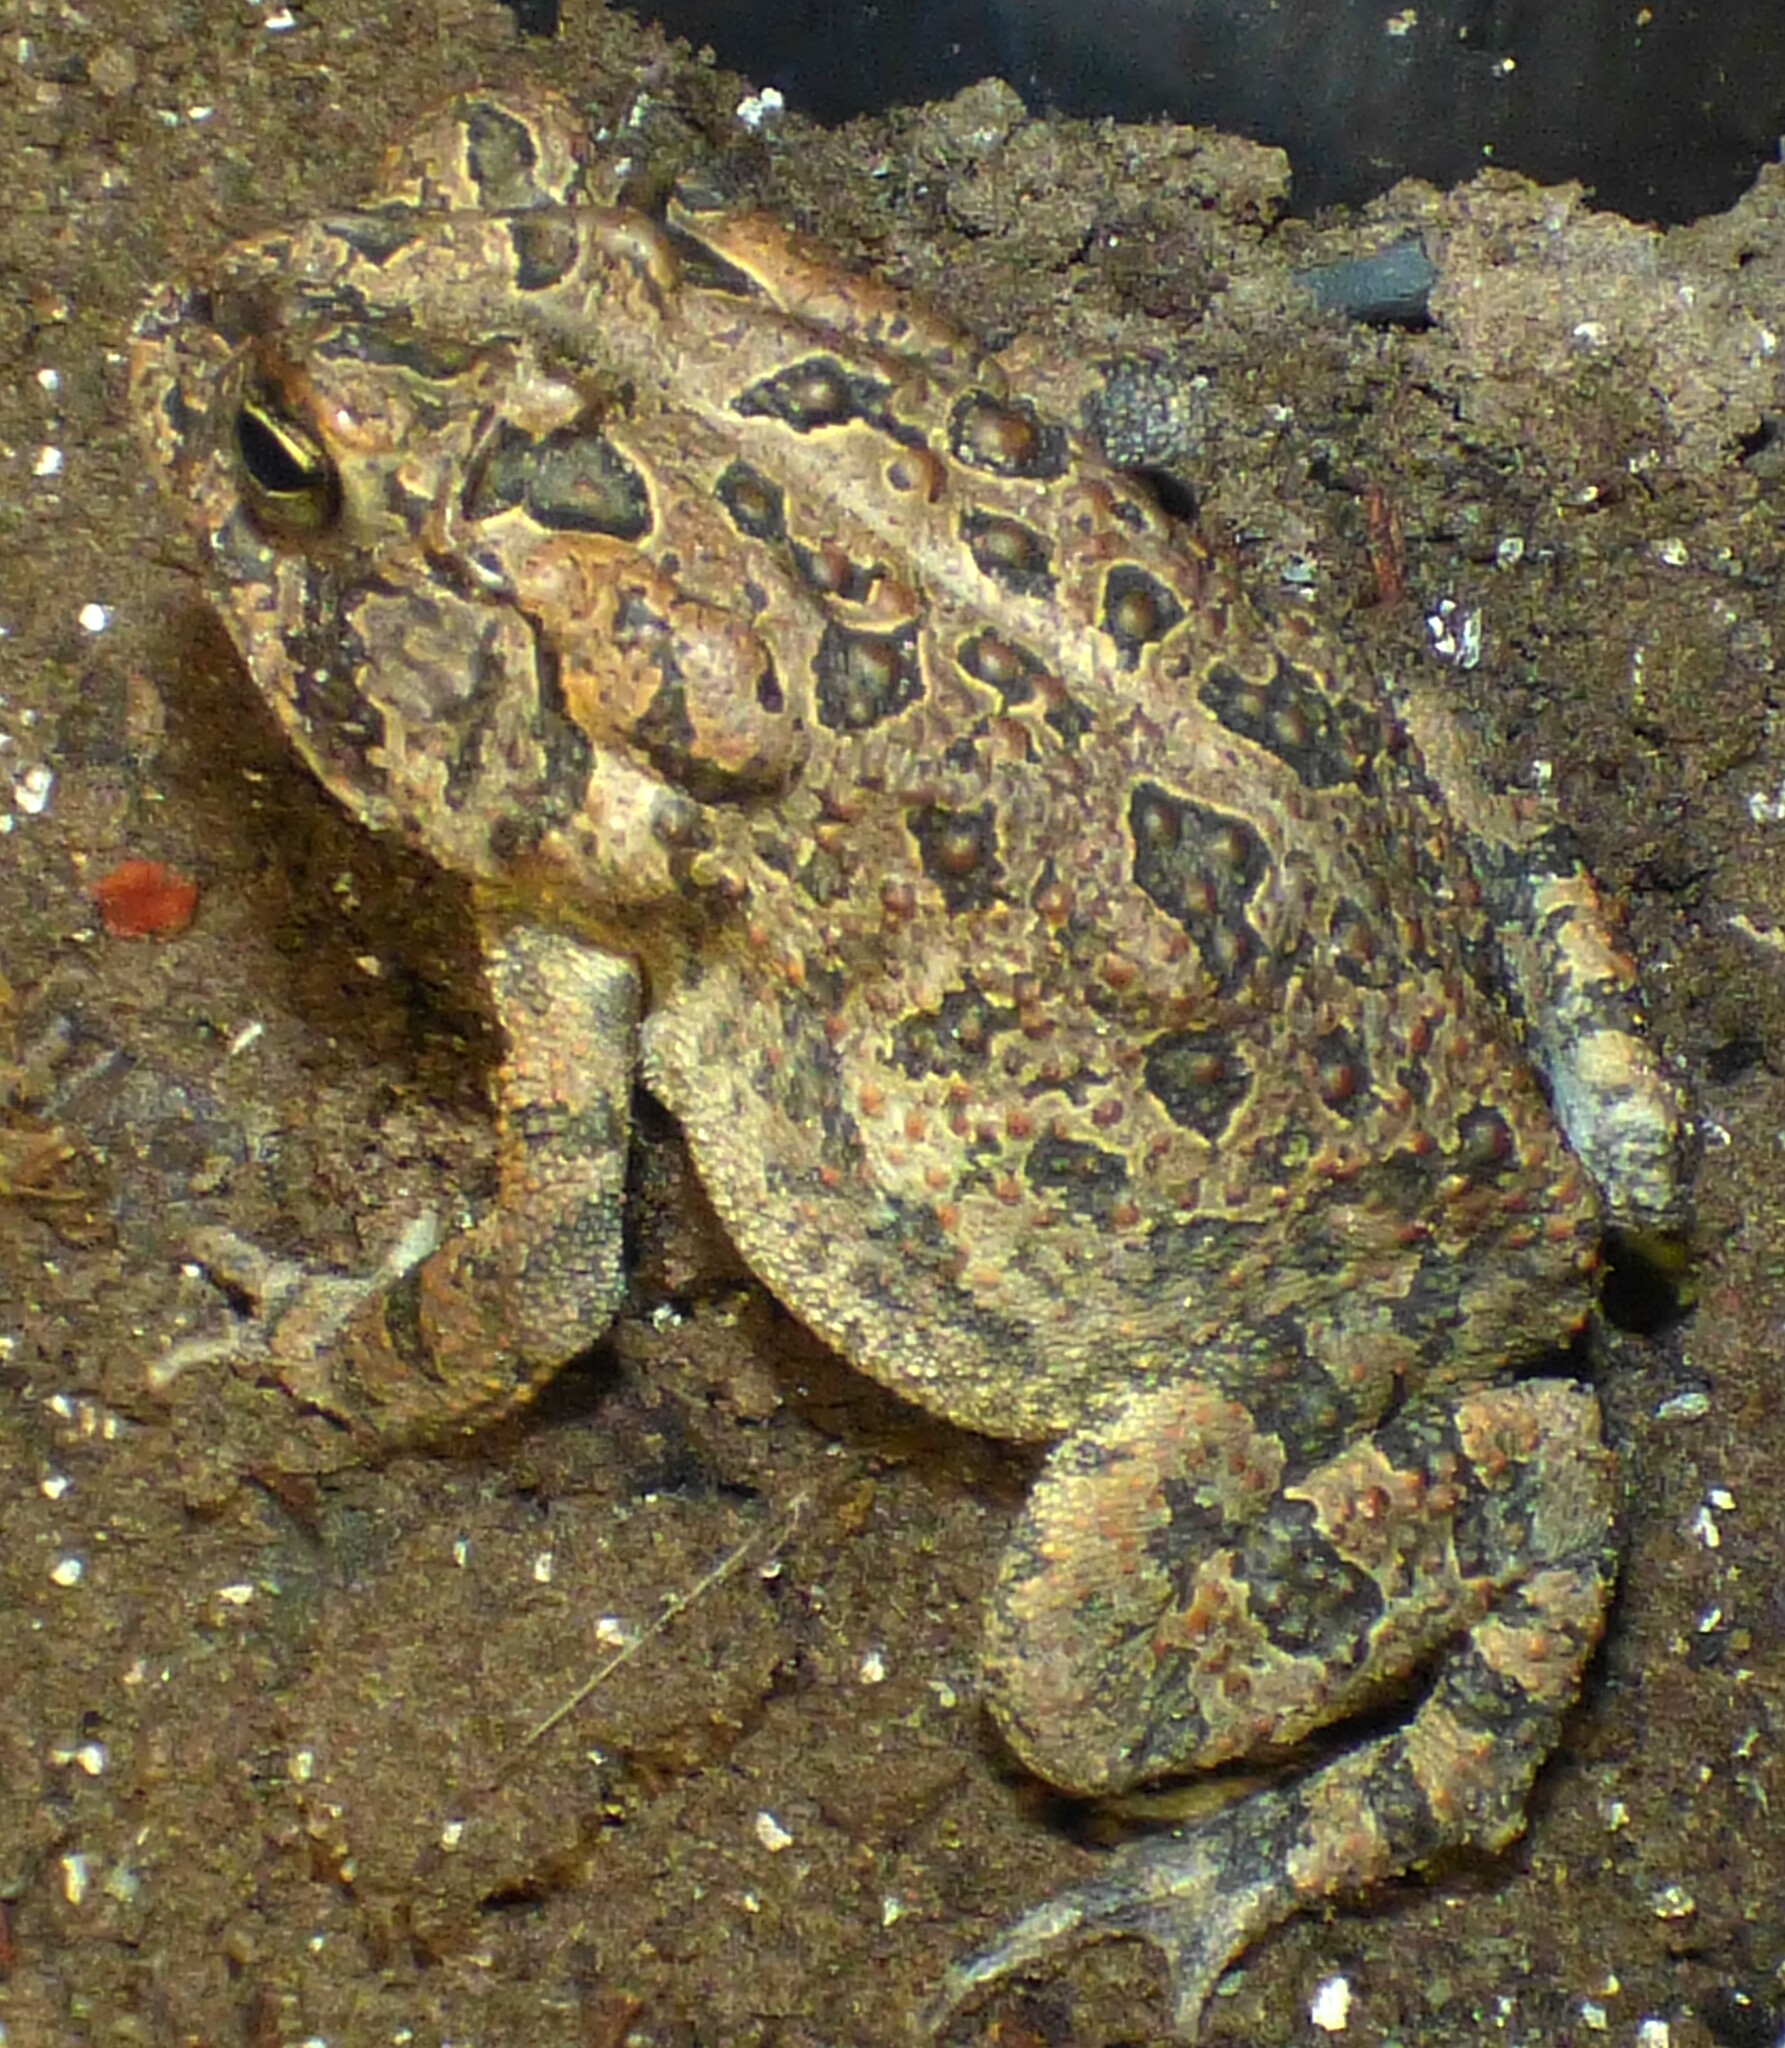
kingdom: Animalia
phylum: Chordata
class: Amphibia
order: Anura
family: Bufonidae
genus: Anaxyrus
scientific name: Anaxyrus terrestris
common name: Southern toad
